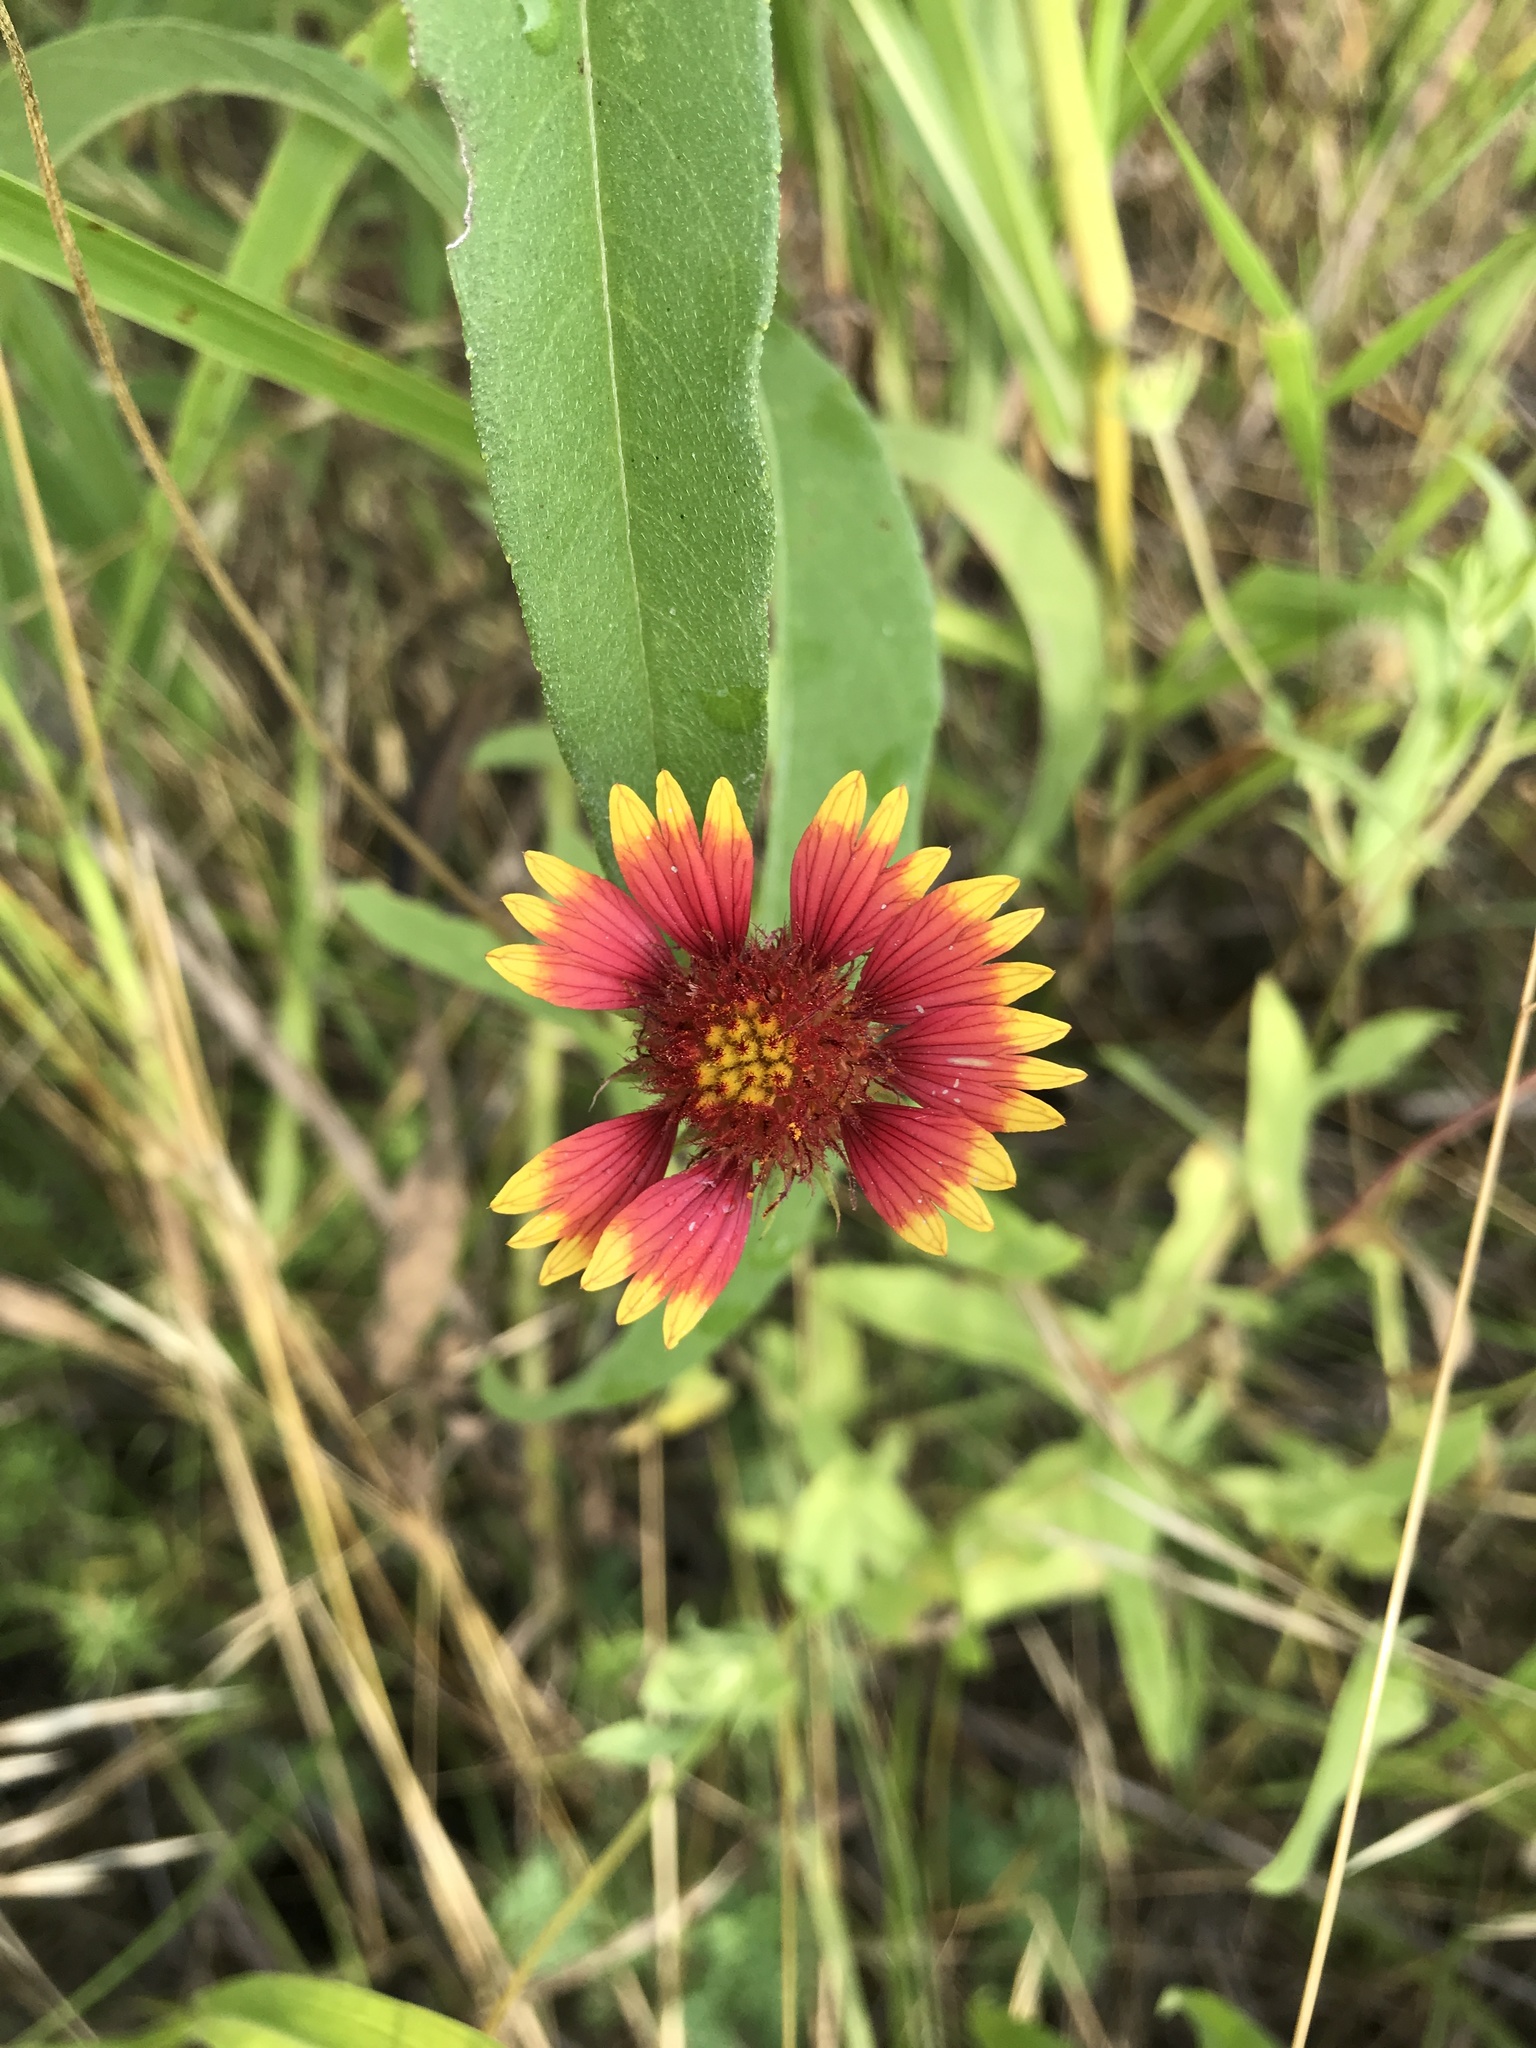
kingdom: Plantae
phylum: Tracheophyta
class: Magnoliopsida
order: Asterales
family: Asteraceae
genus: Gaillardia
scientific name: Gaillardia pulchella
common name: Firewheel
